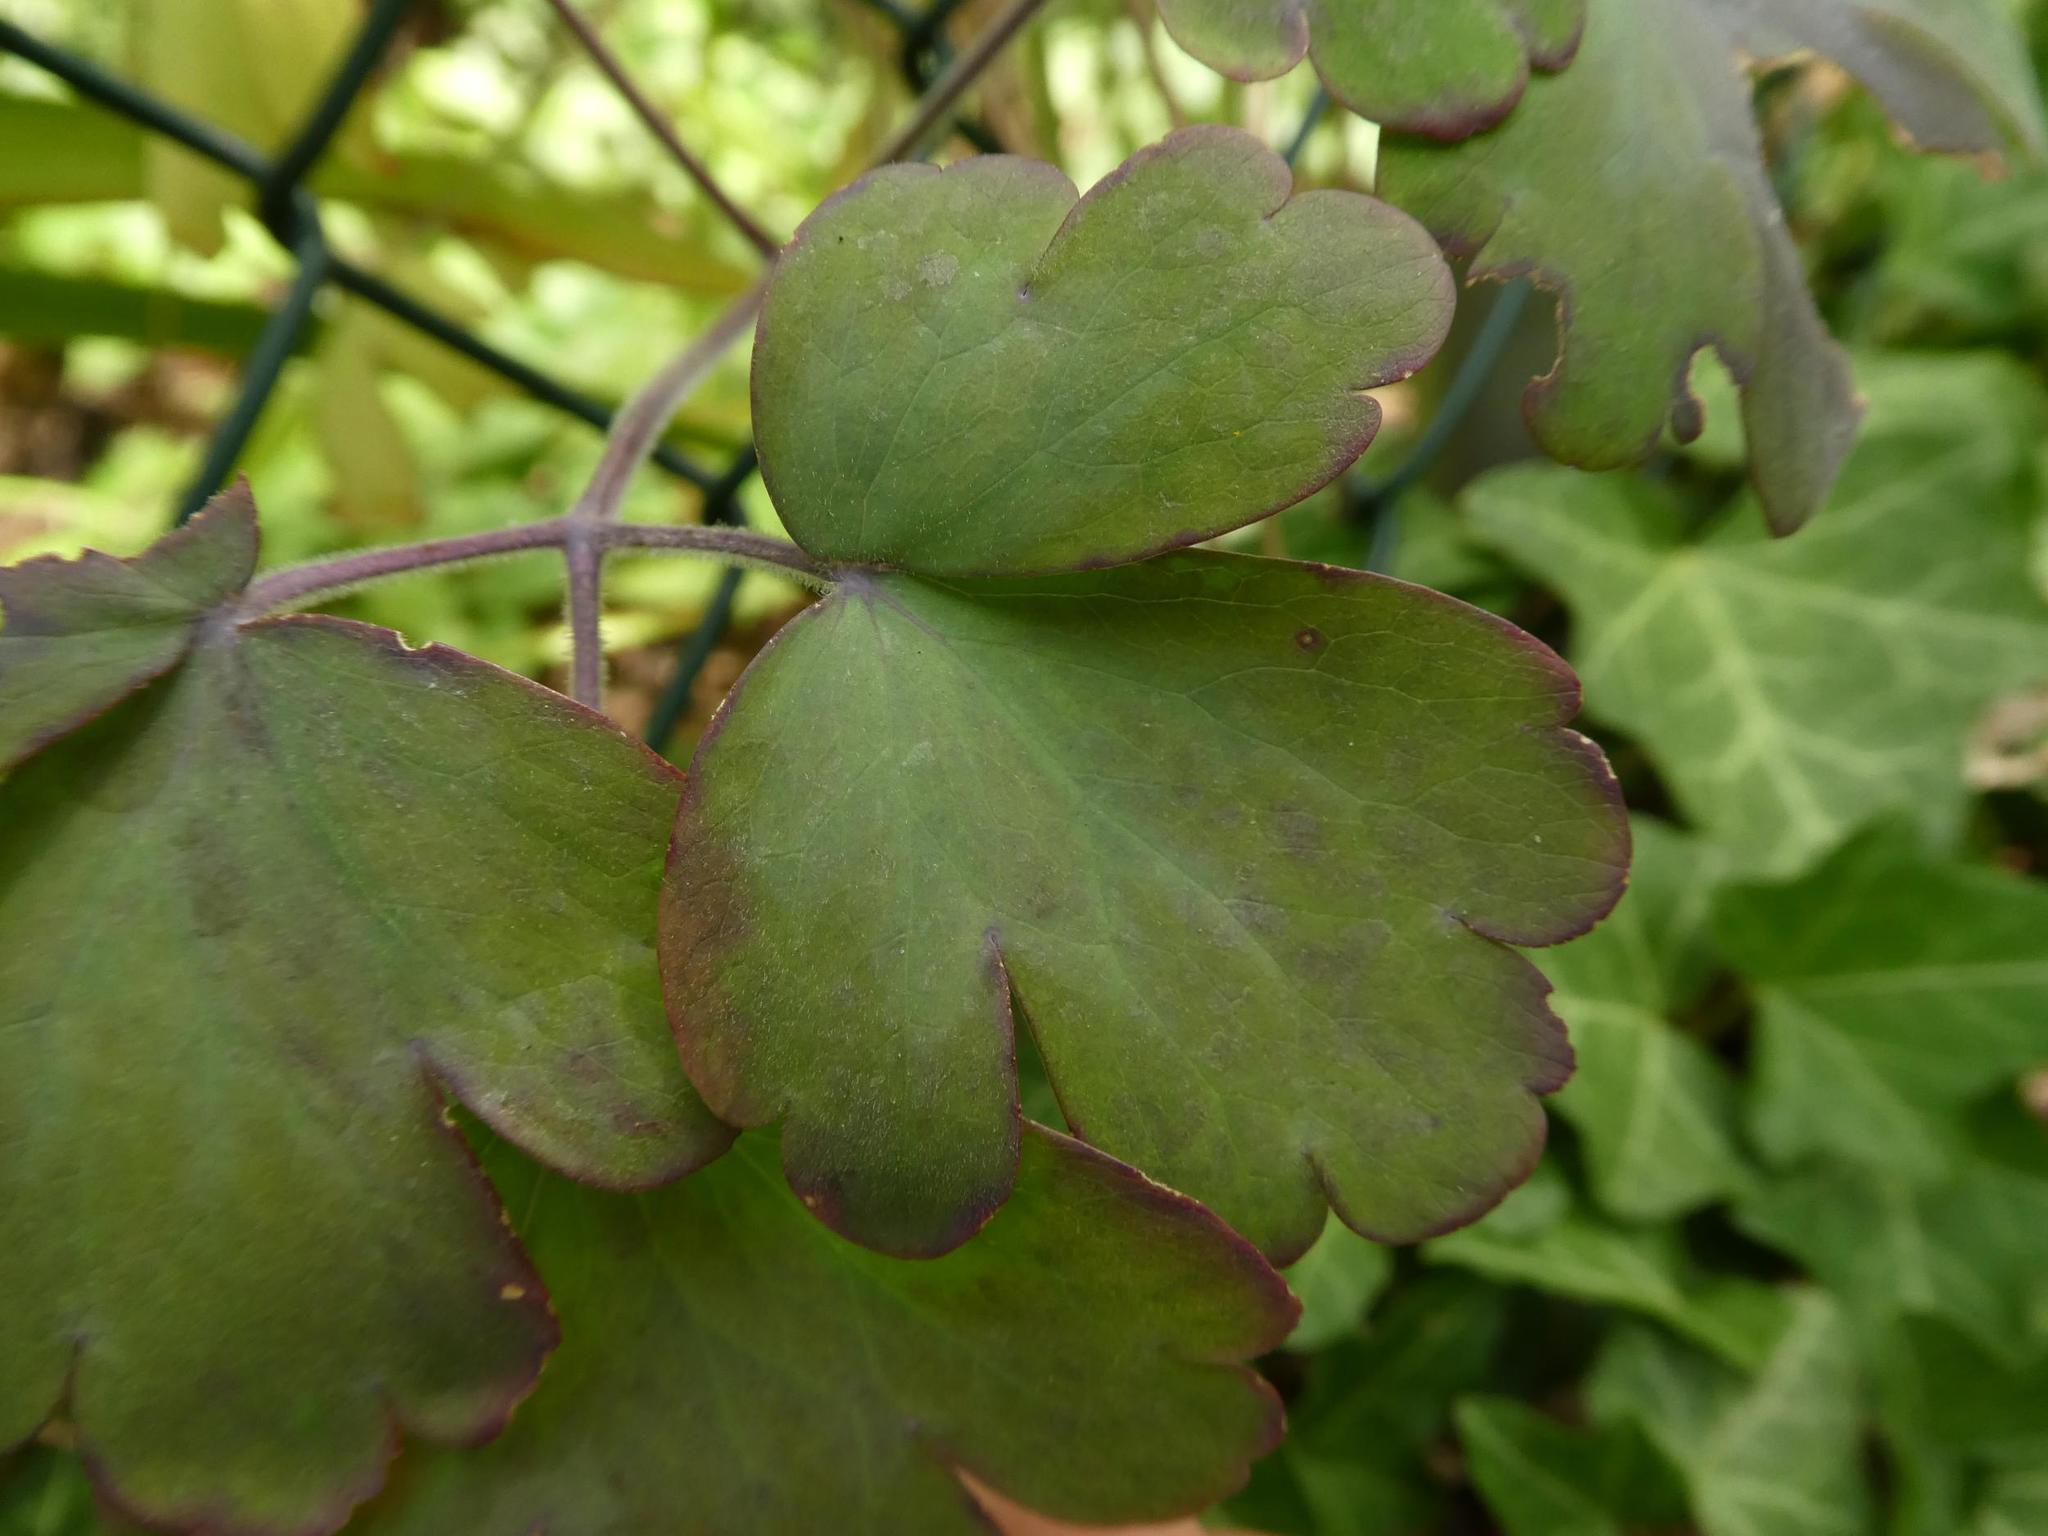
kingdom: Fungi
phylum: Ascomycota
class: Leotiomycetes
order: Helotiales
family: Erysiphaceae
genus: Erysiphe
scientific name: Erysiphe aquilegiae
